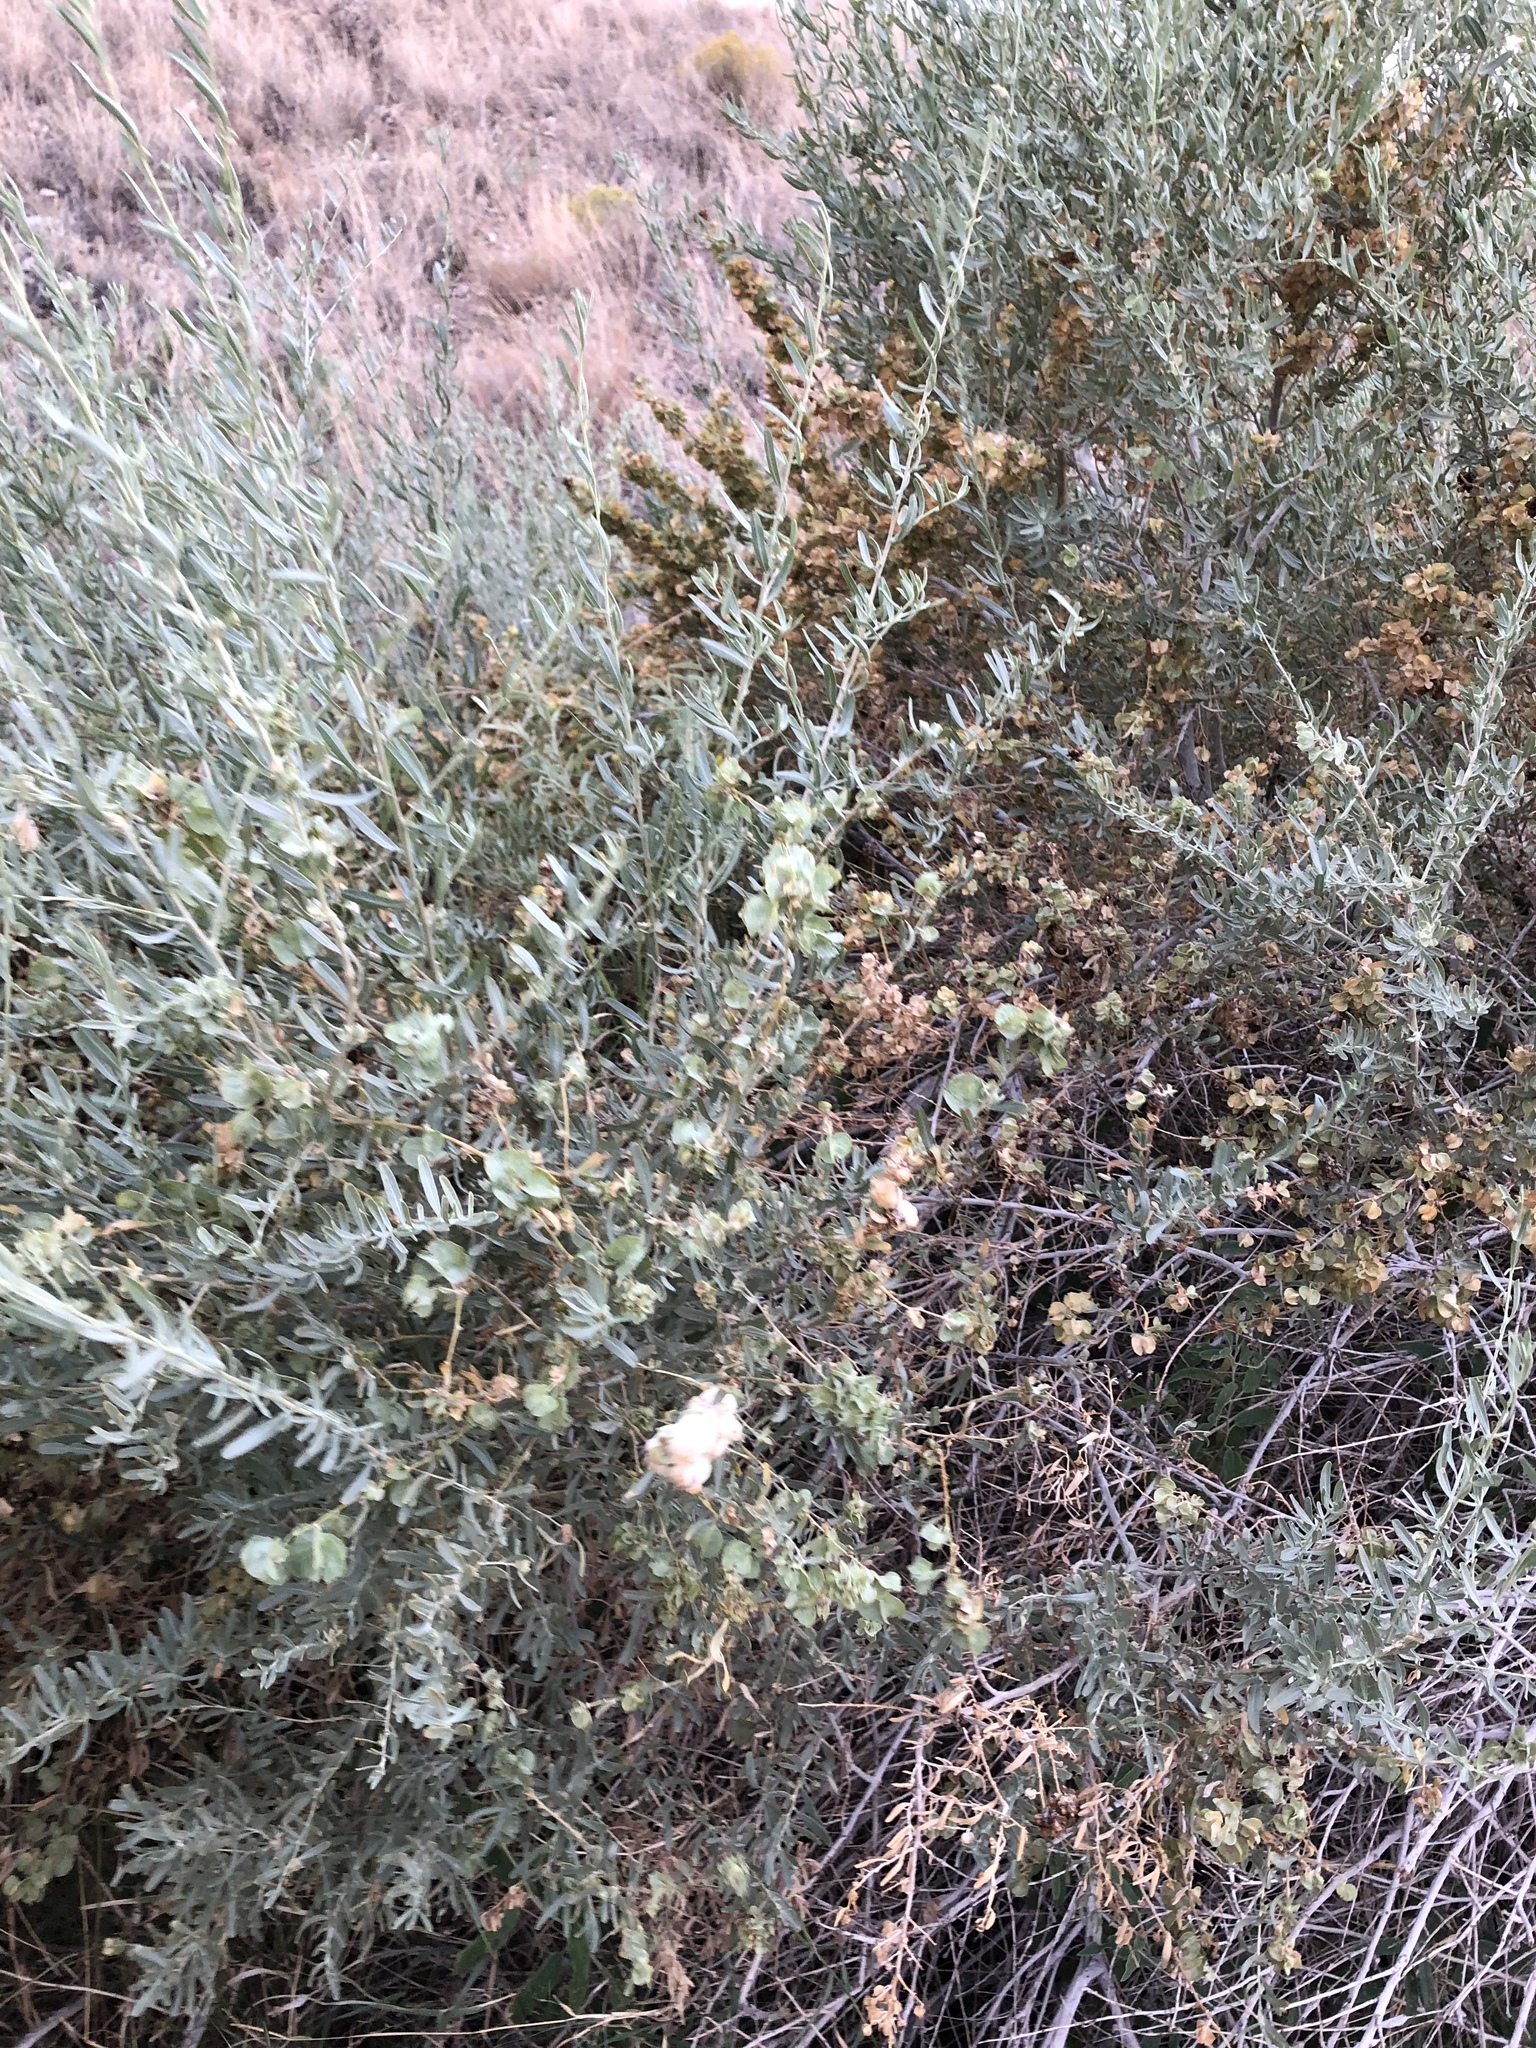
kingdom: Plantae
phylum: Tracheophyta
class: Magnoliopsida
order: Caryophyllales
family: Amaranthaceae
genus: Atriplex
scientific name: Atriplex canescens
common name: Four-wing saltbush
